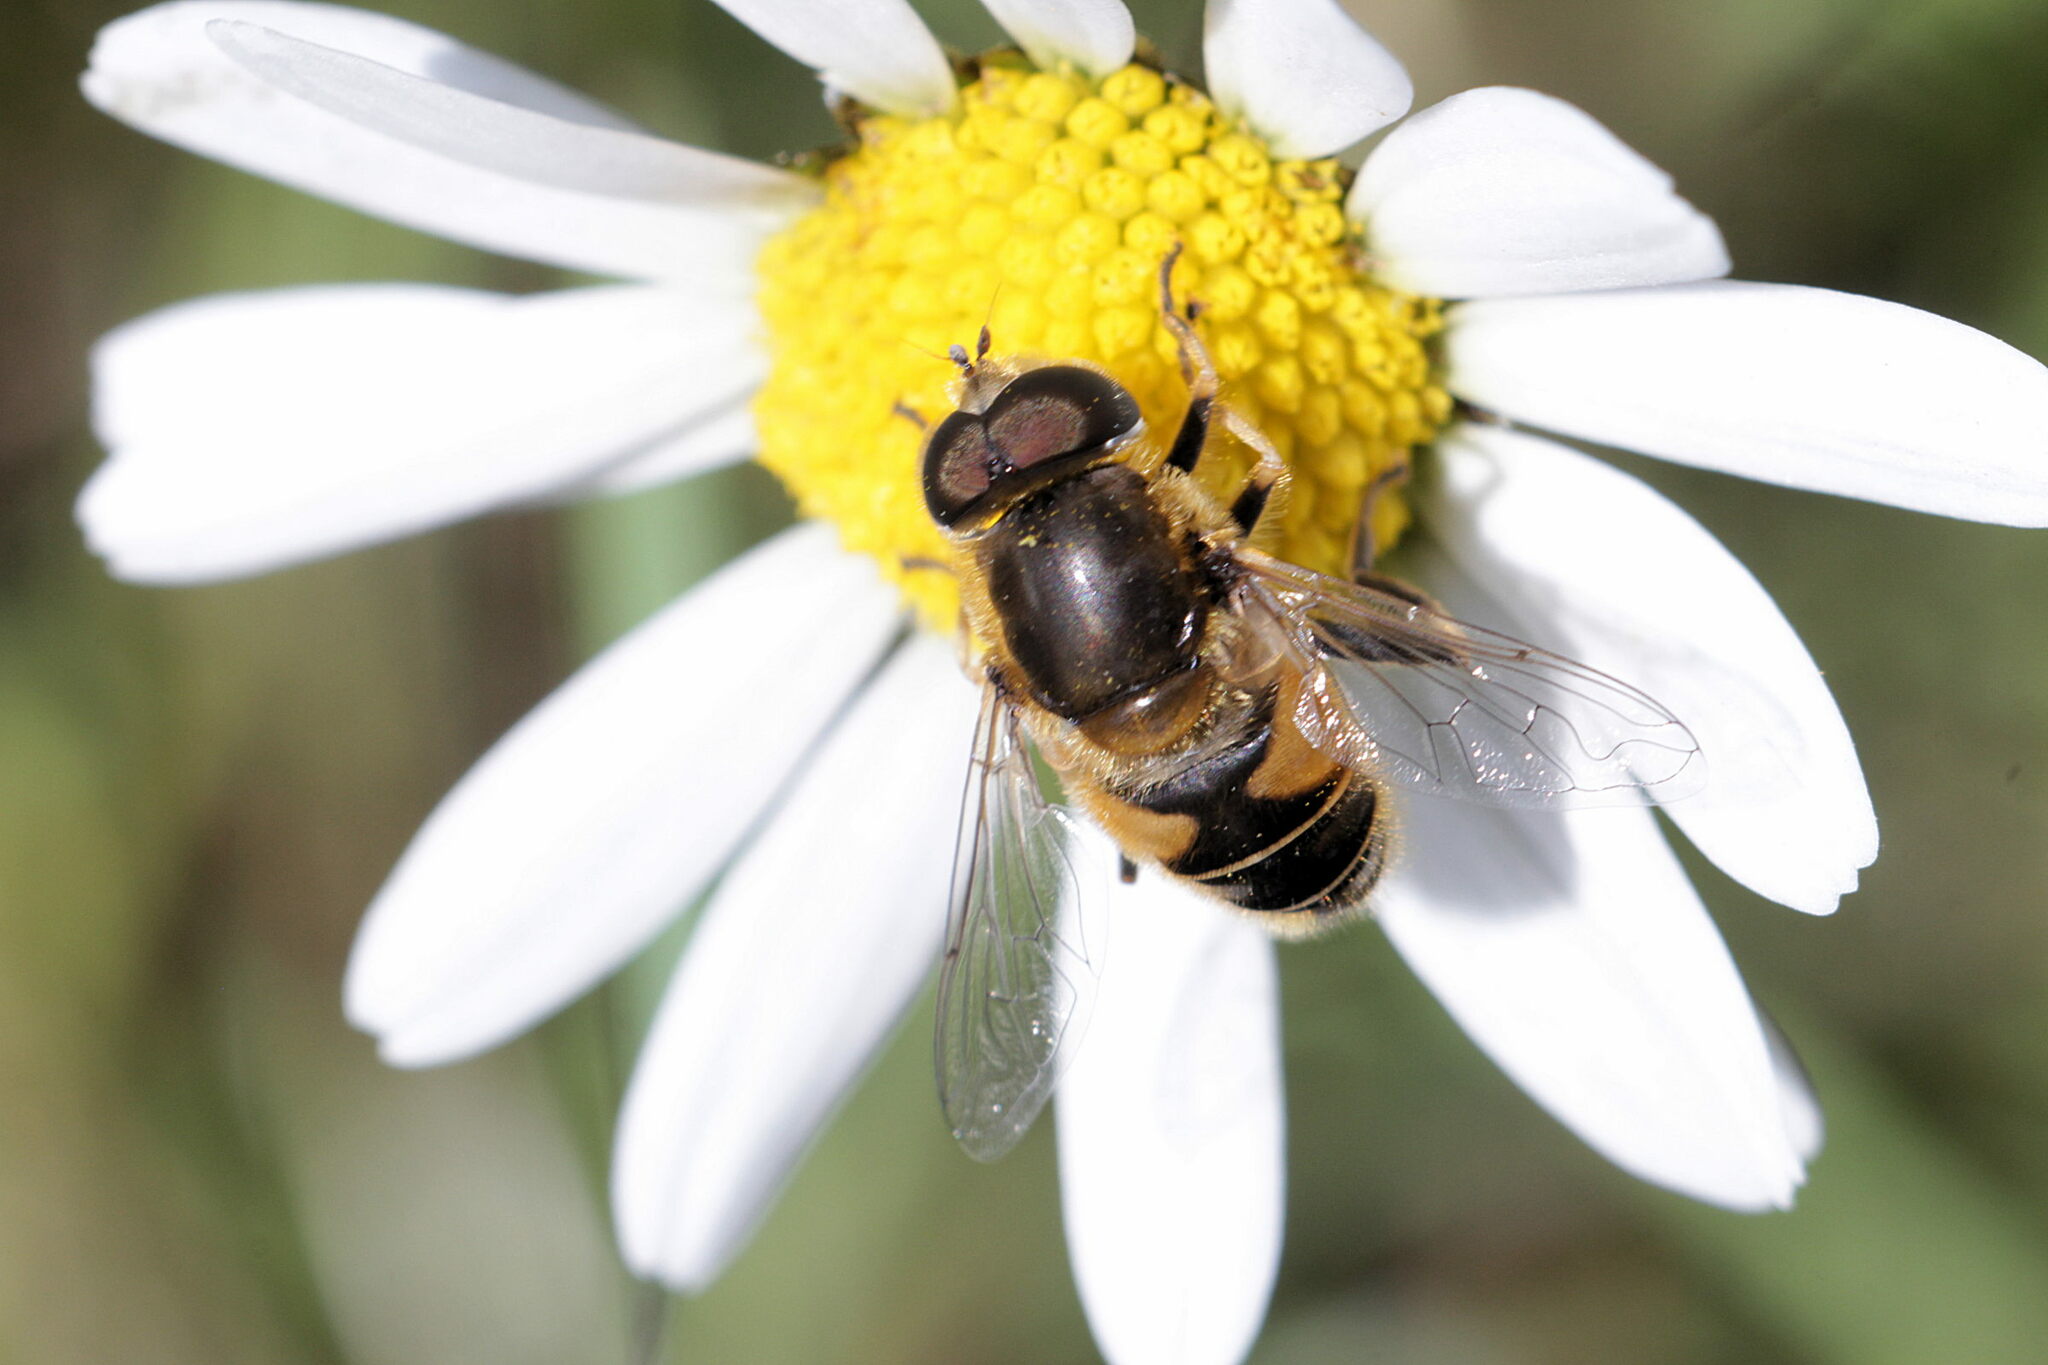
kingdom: Animalia
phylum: Arthropoda
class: Insecta
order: Diptera
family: Syrphidae
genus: Eristalis
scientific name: Eristalis nemorum
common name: Orange-spined drone fly
